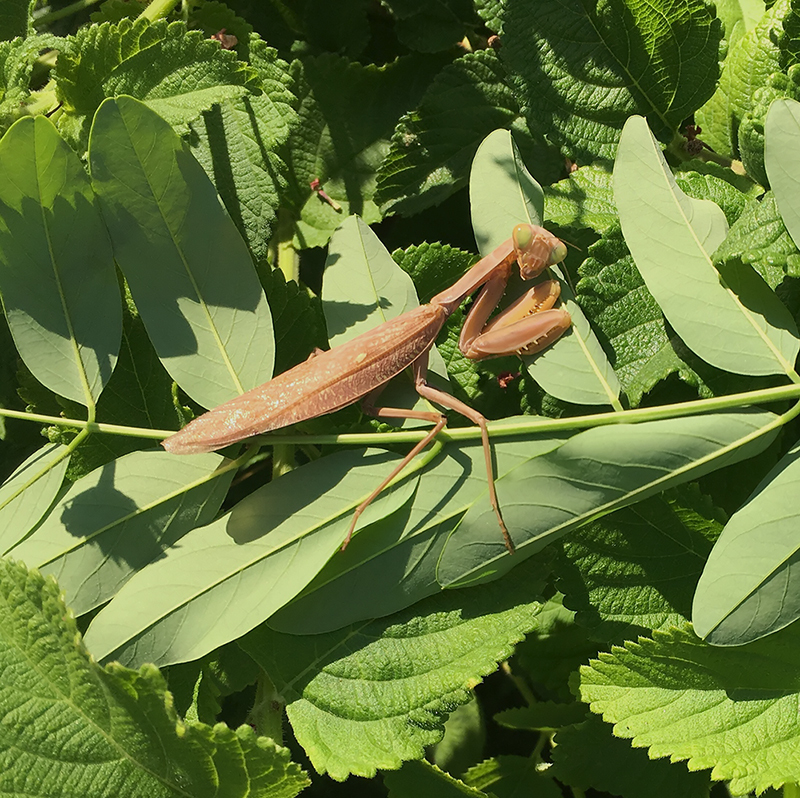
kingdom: Animalia
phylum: Arthropoda
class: Insecta
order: Mantodea
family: Mantidae
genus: Hierodula
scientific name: Hierodula transcaucasica
